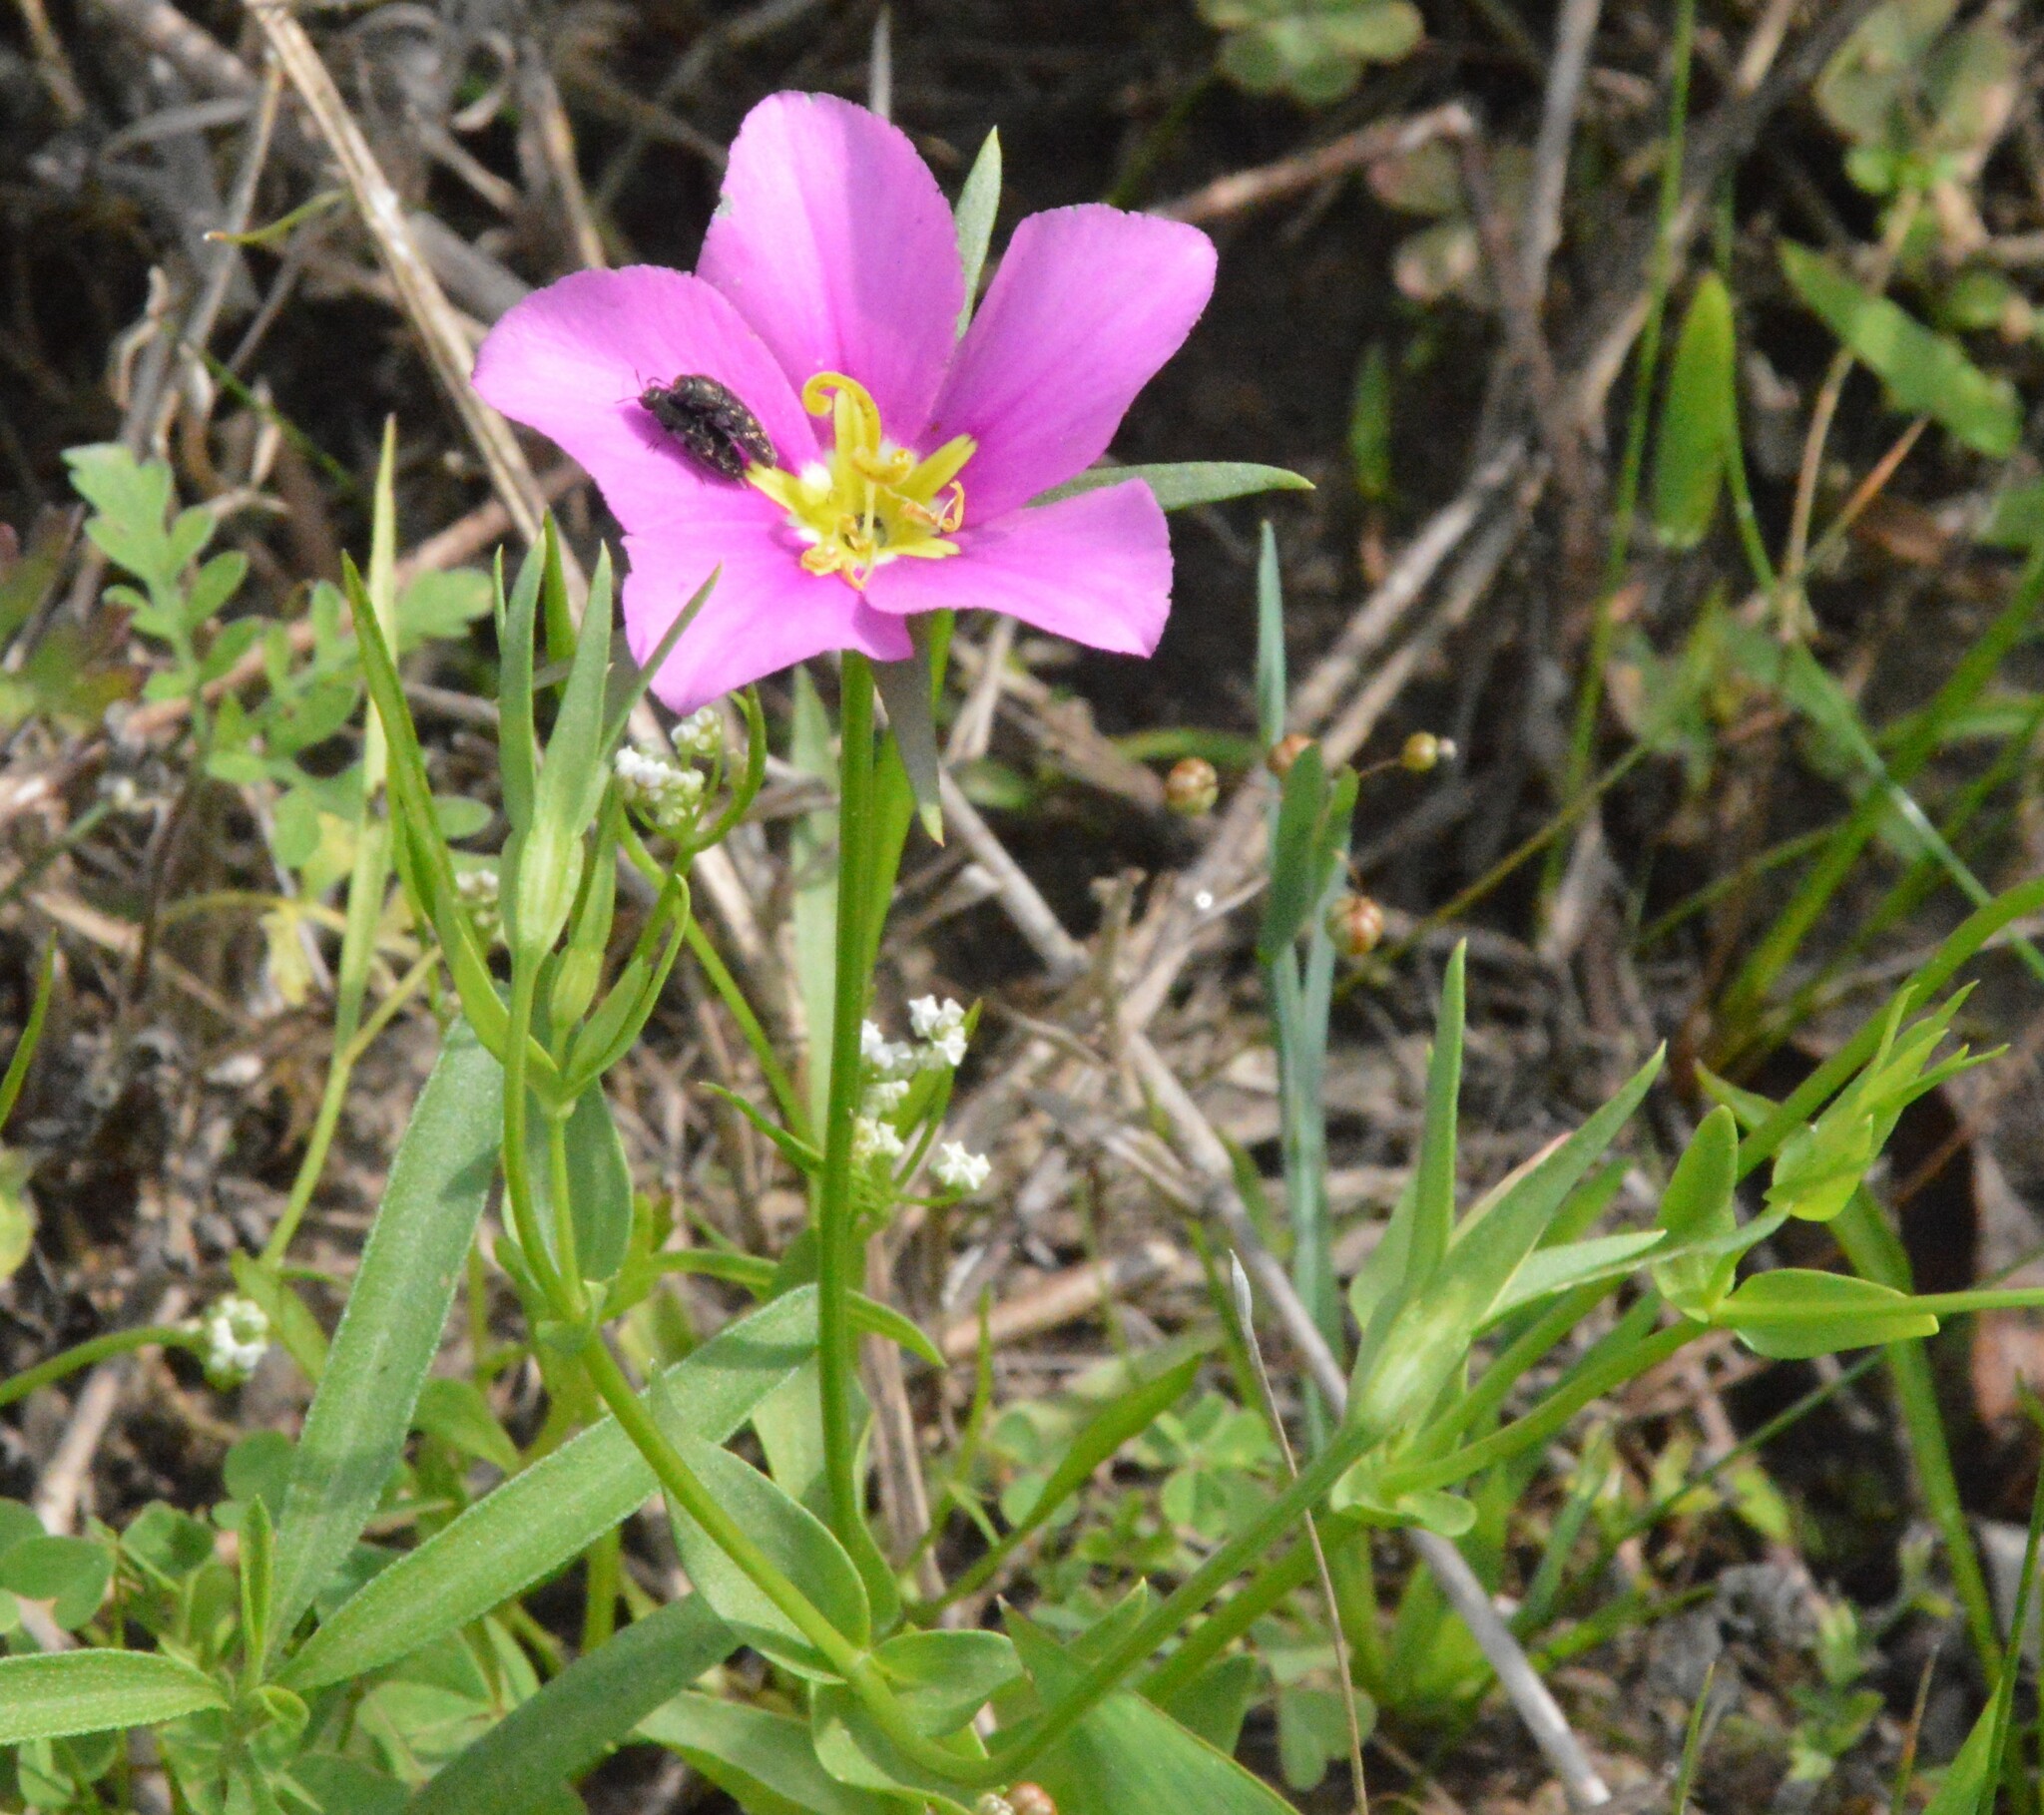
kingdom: Plantae
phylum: Tracheophyta
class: Magnoliopsida
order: Gentianales
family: Gentianaceae
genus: Sabatia
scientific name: Sabatia campestris
